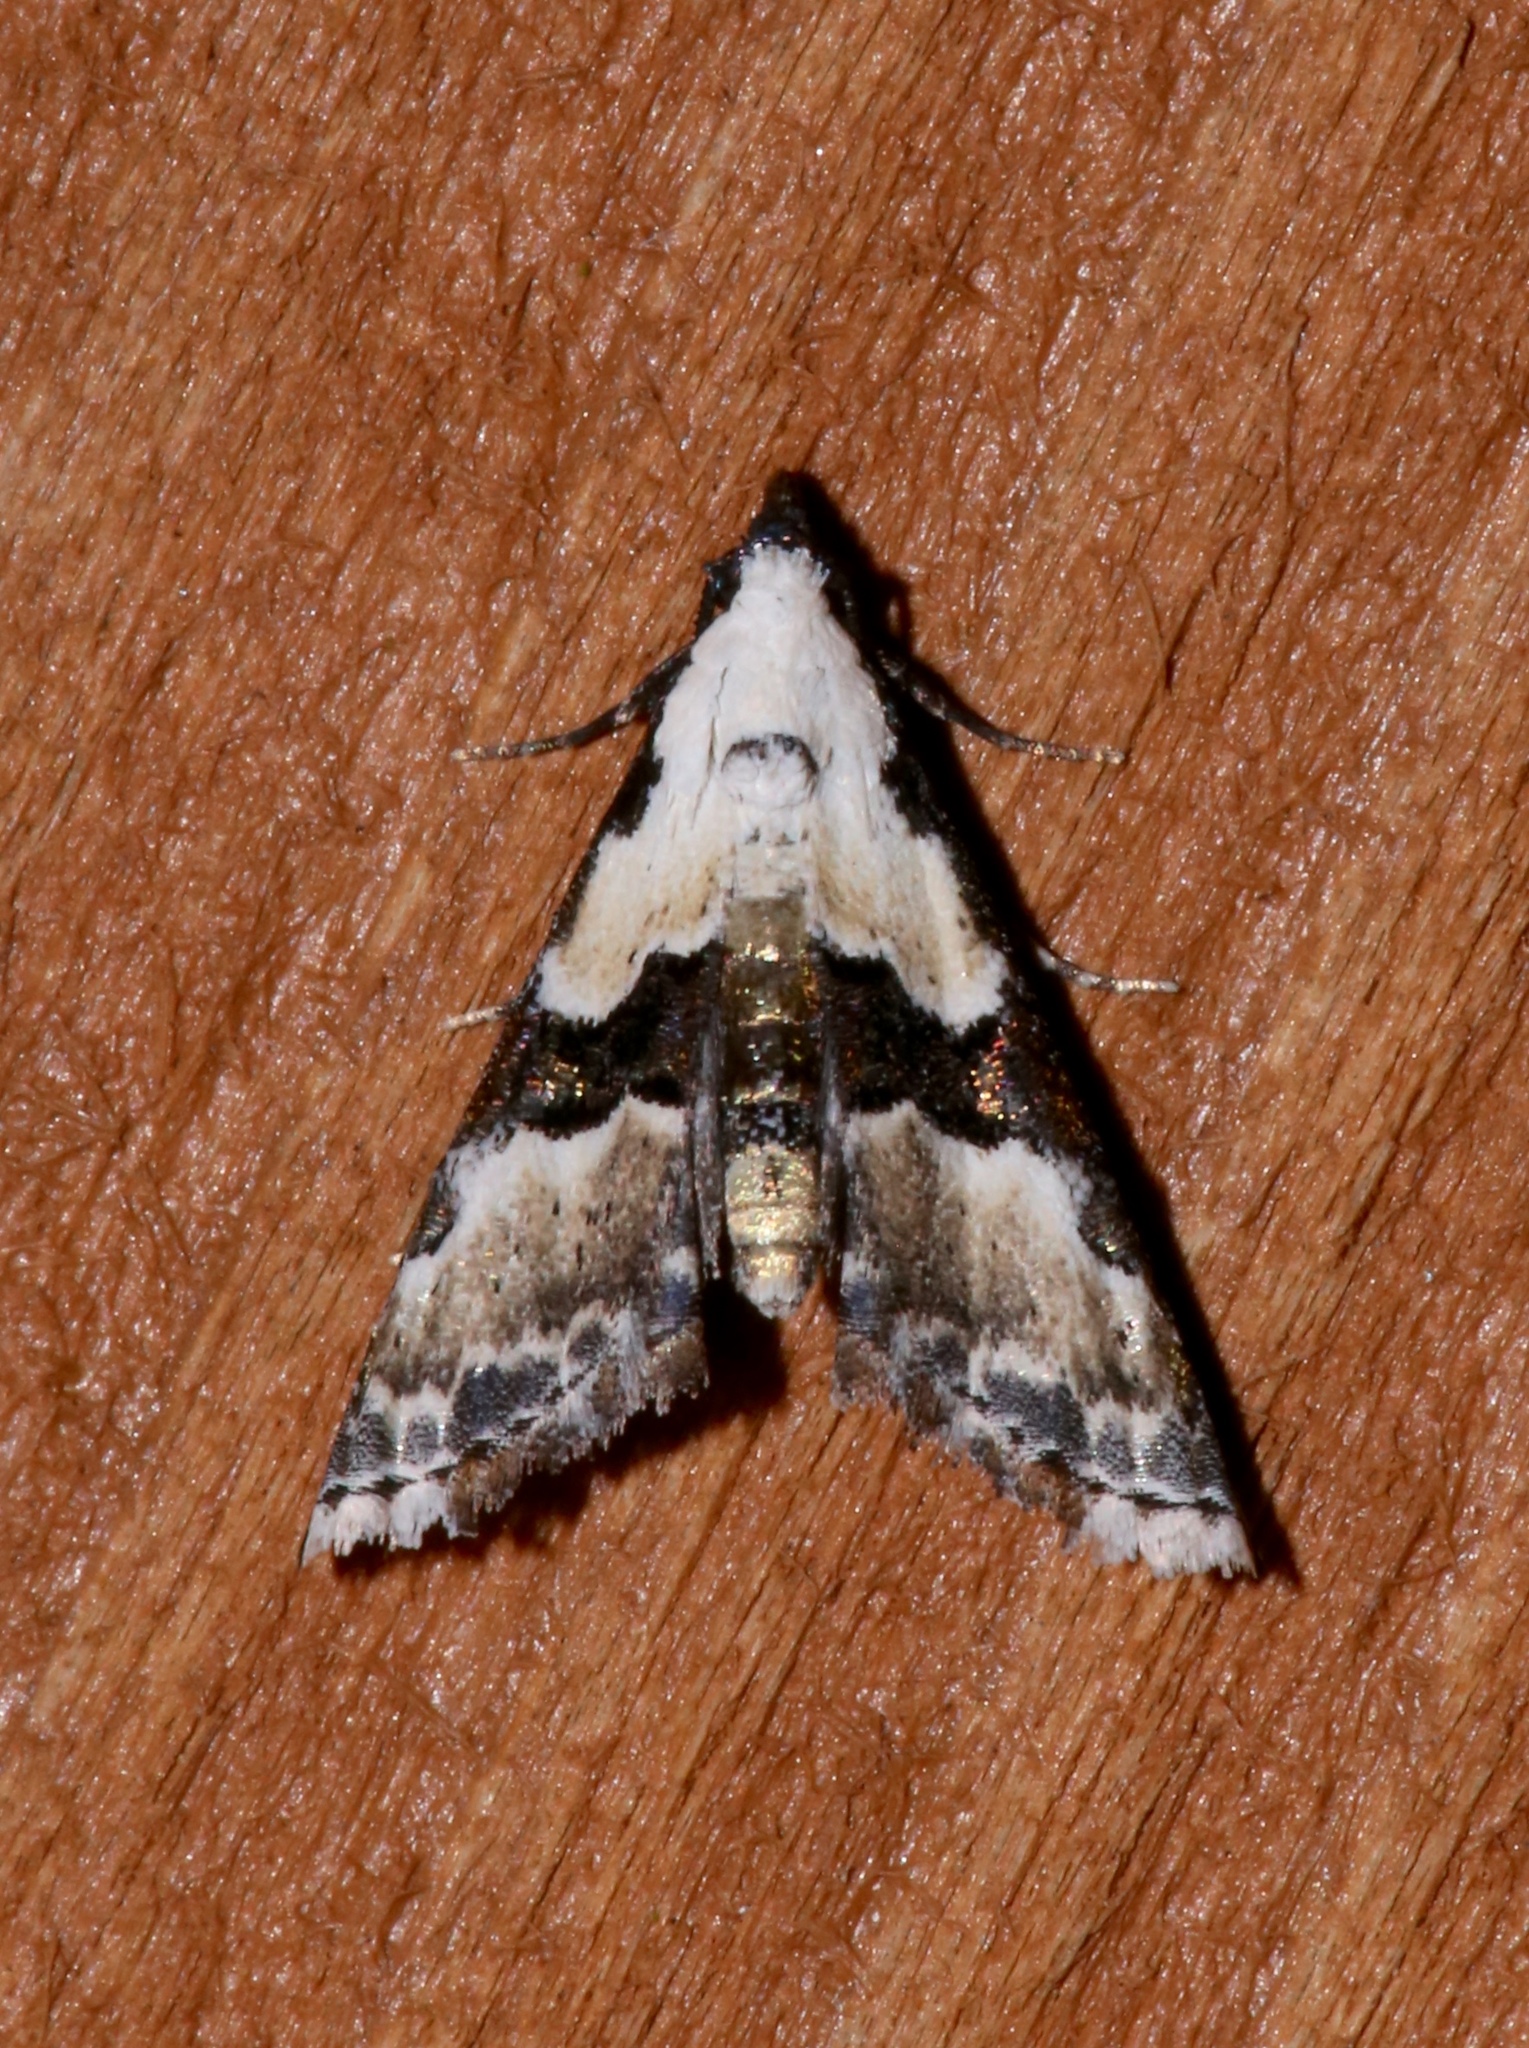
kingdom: Animalia
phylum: Arthropoda
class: Insecta
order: Lepidoptera
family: Noctuidae
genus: Nigetia
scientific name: Nigetia formosalis
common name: Thin-winged owlet
